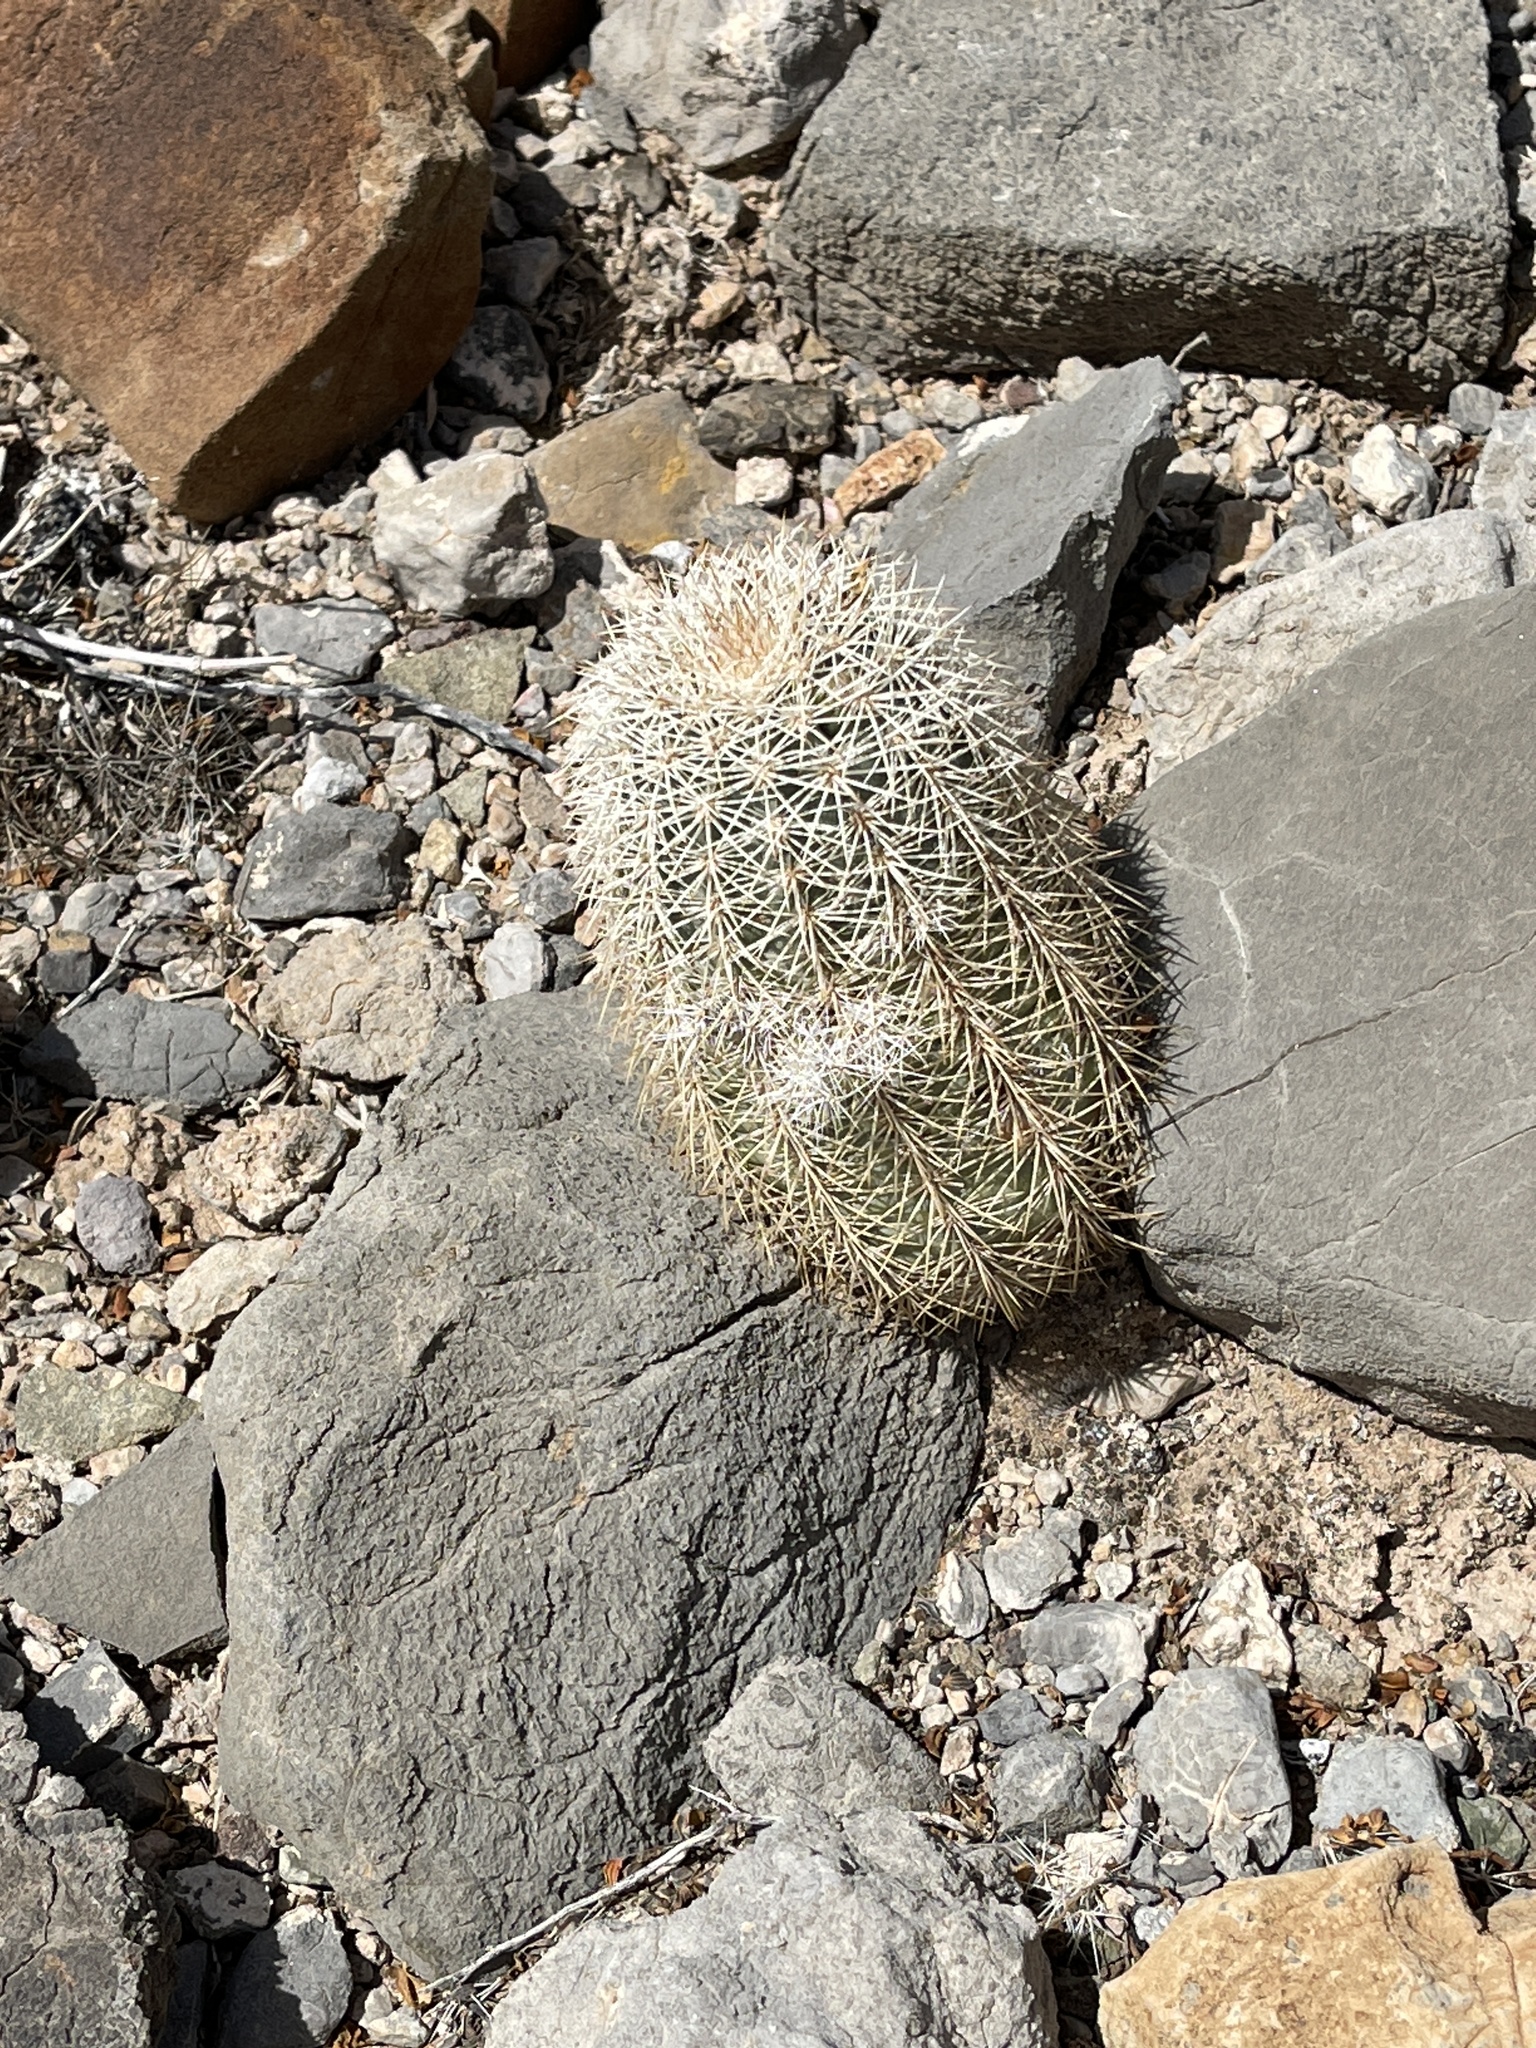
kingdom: Plantae
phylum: Tracheophyta
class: Magnoliopsida
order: Caryophyllales
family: Cactaceae
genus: Echinocereus
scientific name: Echinocereus dasyacanthus
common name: Spiny hedgehog cactus
